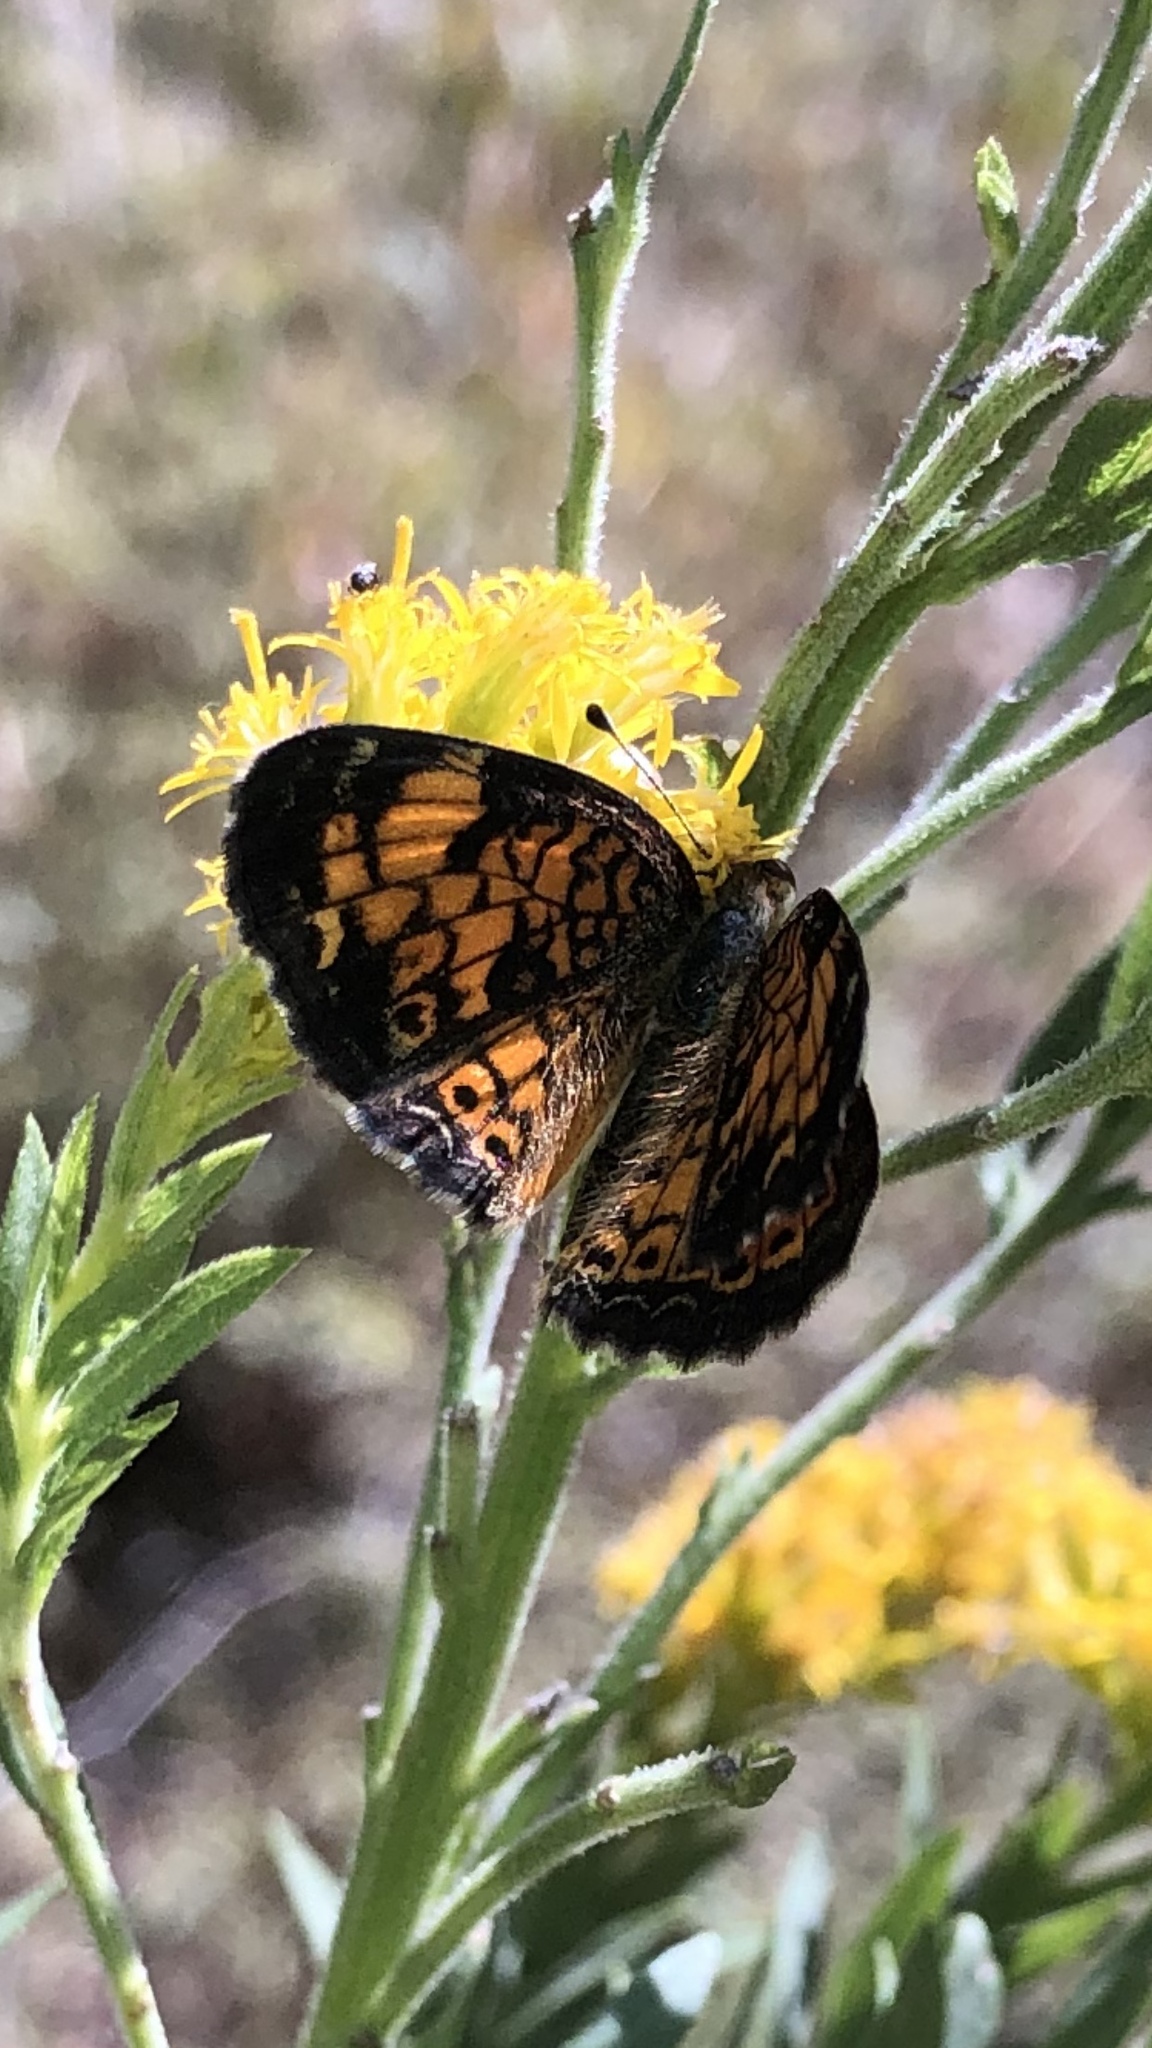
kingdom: Animalia
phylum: Arthropoda
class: Insecta
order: Lepidoptera
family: Nymphalidae
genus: Phyciodes
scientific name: Phyciodes tharos
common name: Pearl crescent
